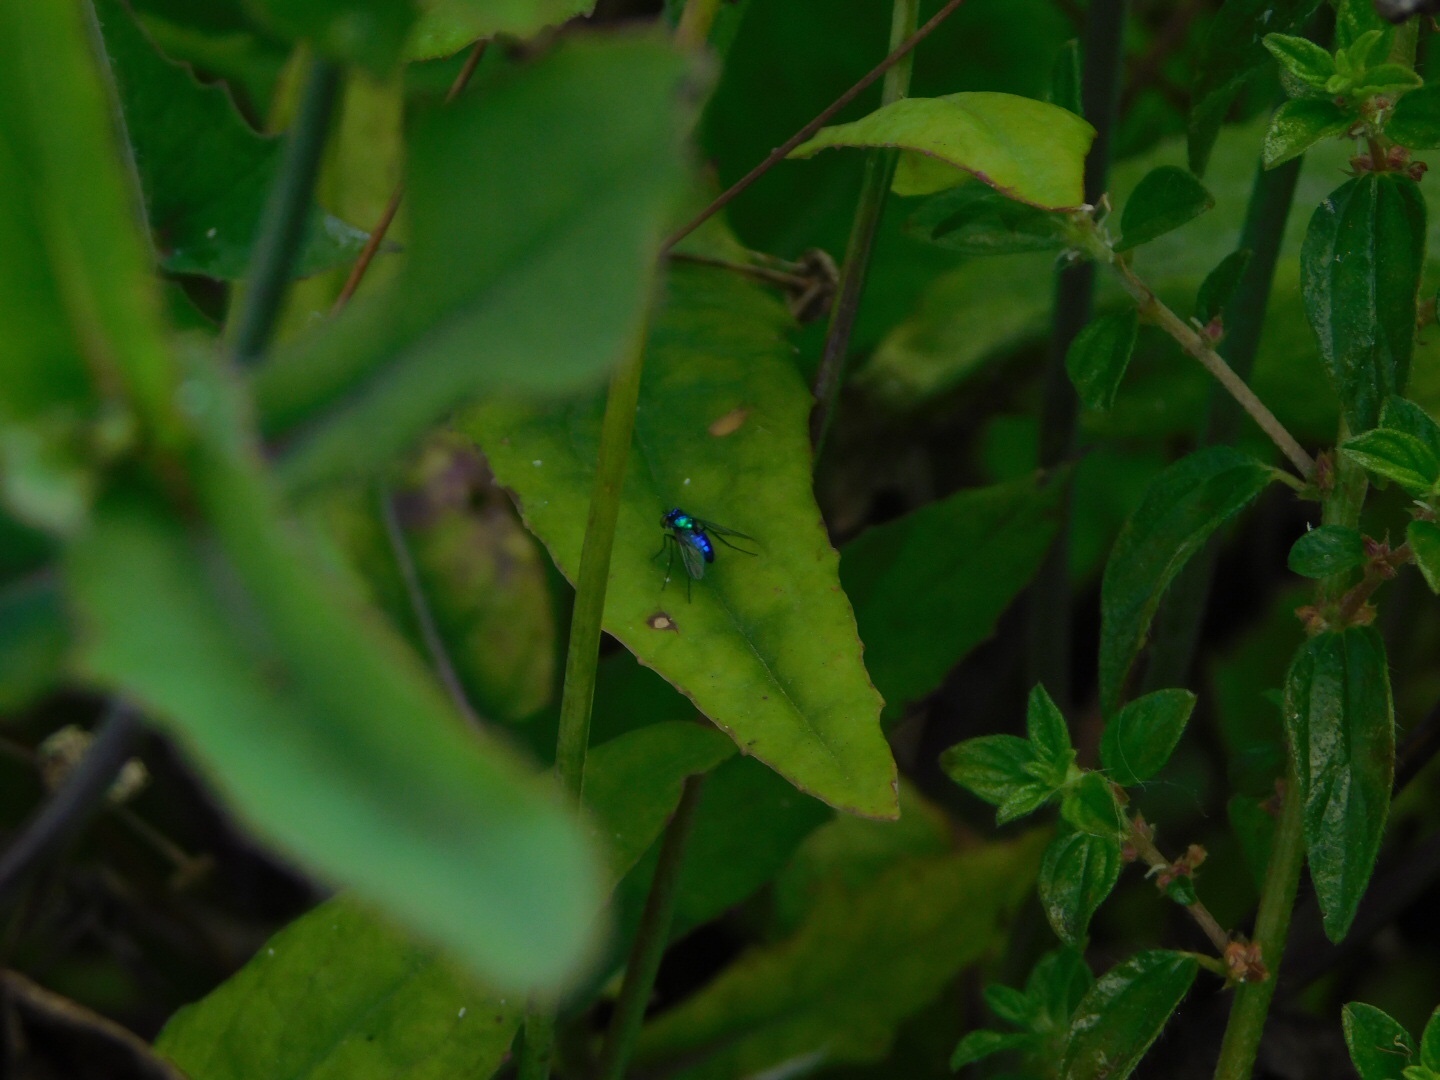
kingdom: Animalia
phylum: Arthropoda
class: Insecta
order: Diptera
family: Dolichopodidae
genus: Condylostylus
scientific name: Condylostylus mundus
